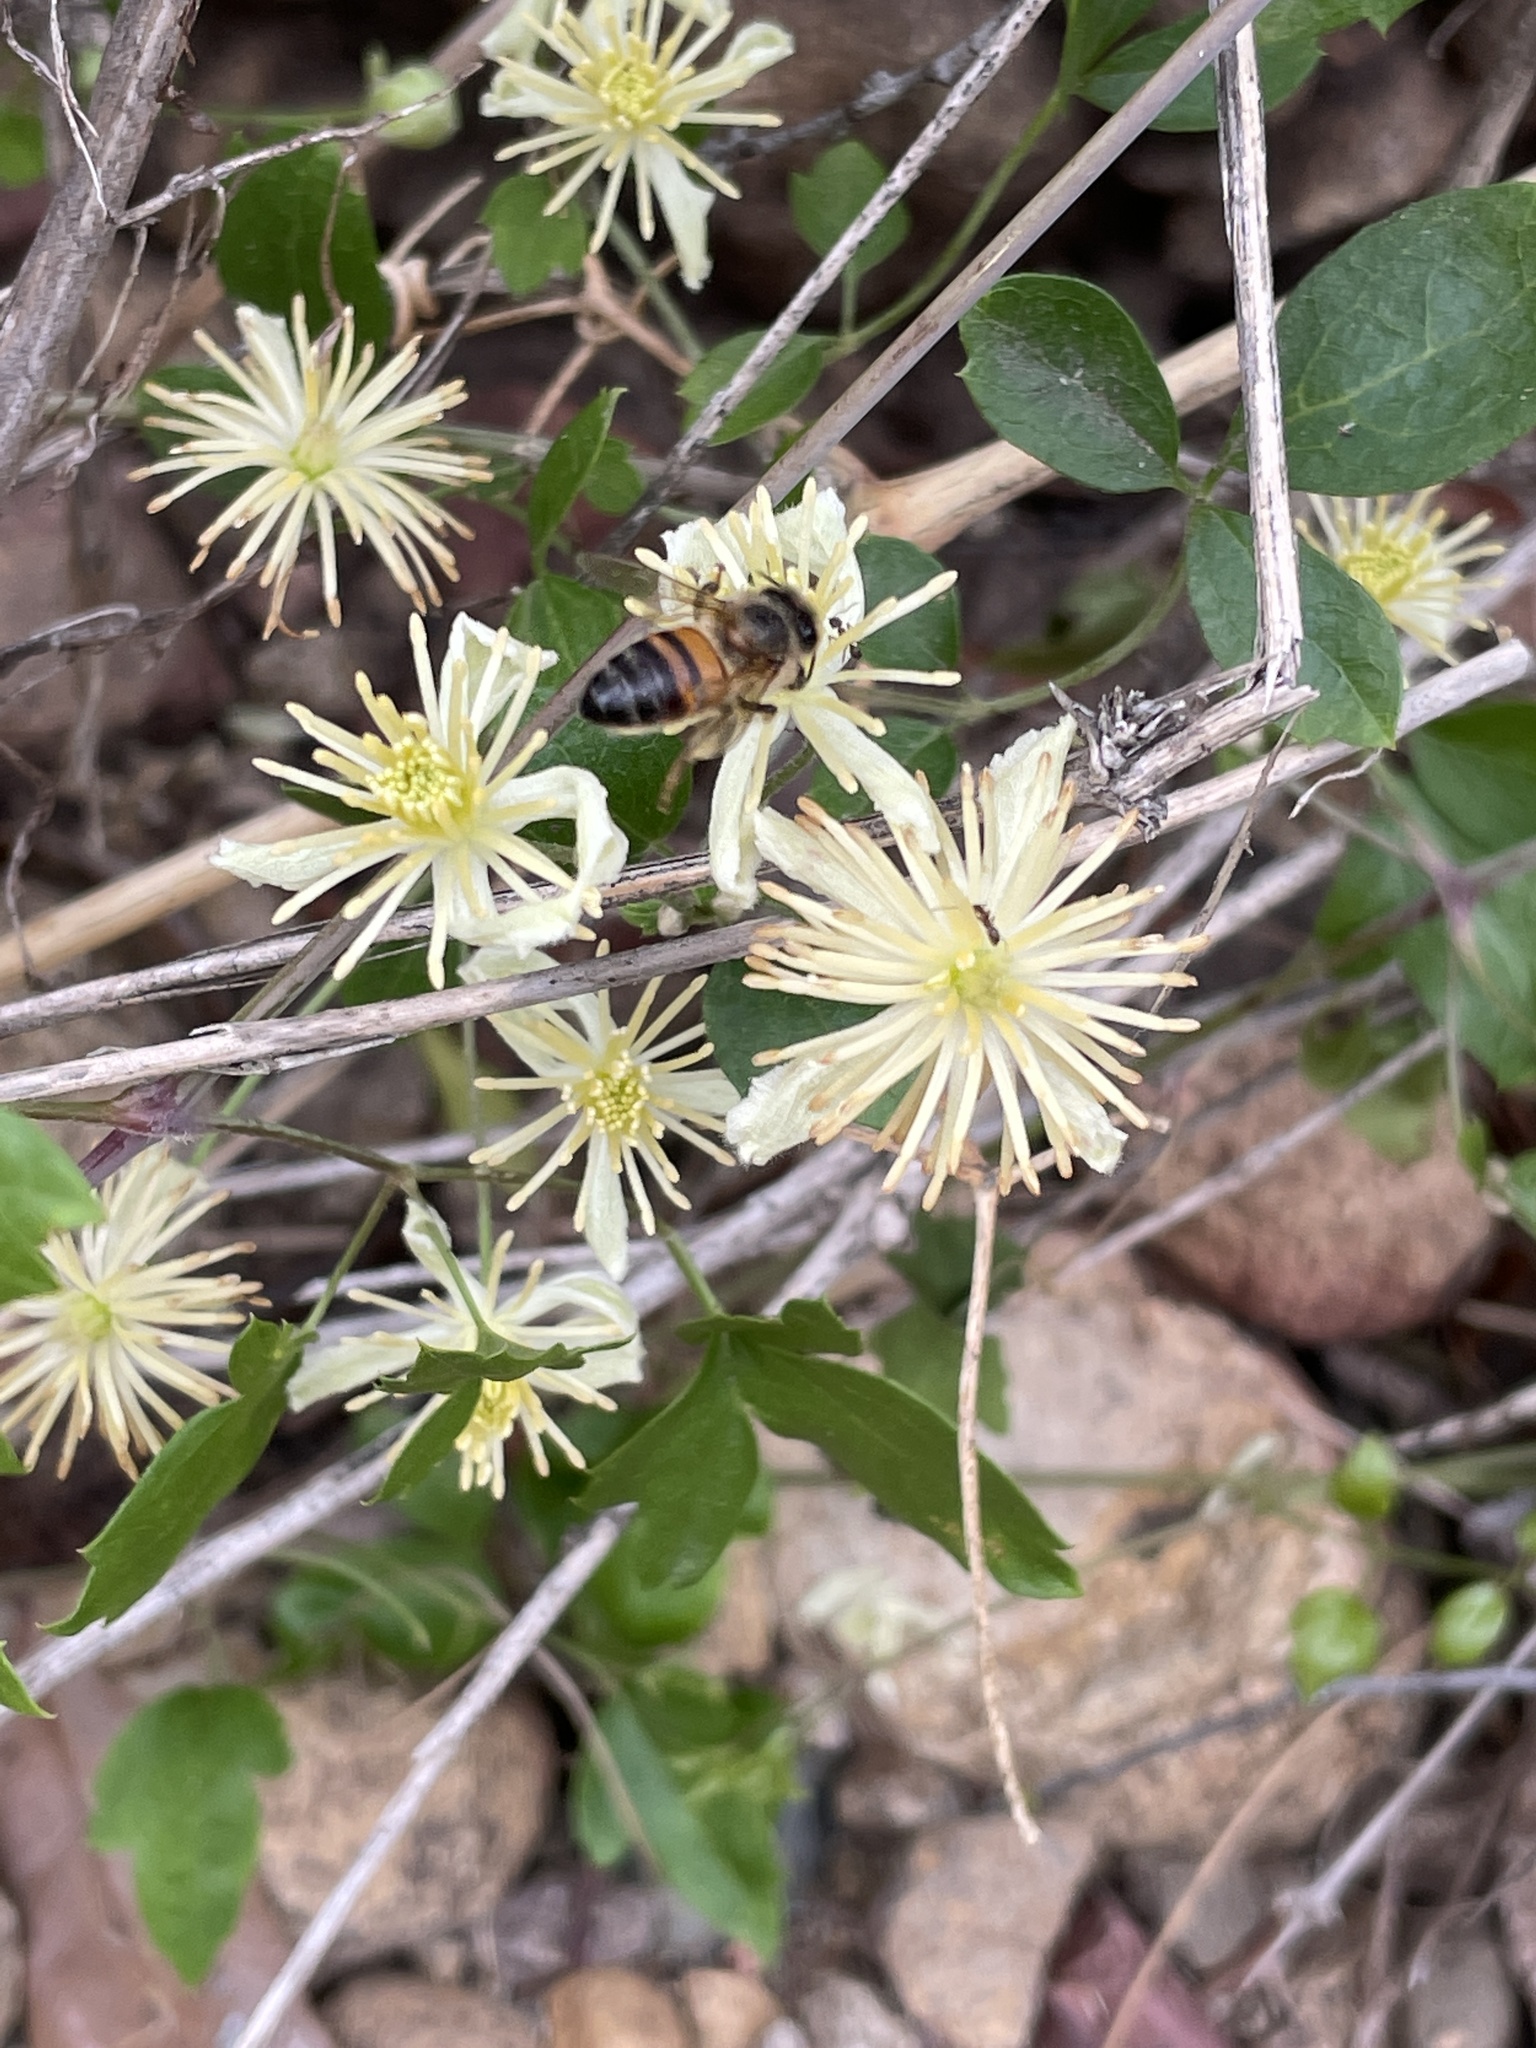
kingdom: Animalia
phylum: Arthropoda
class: Insecta
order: Hymenoptera
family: Apidae
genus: Apis
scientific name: Apis mellifera
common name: Honey bee
